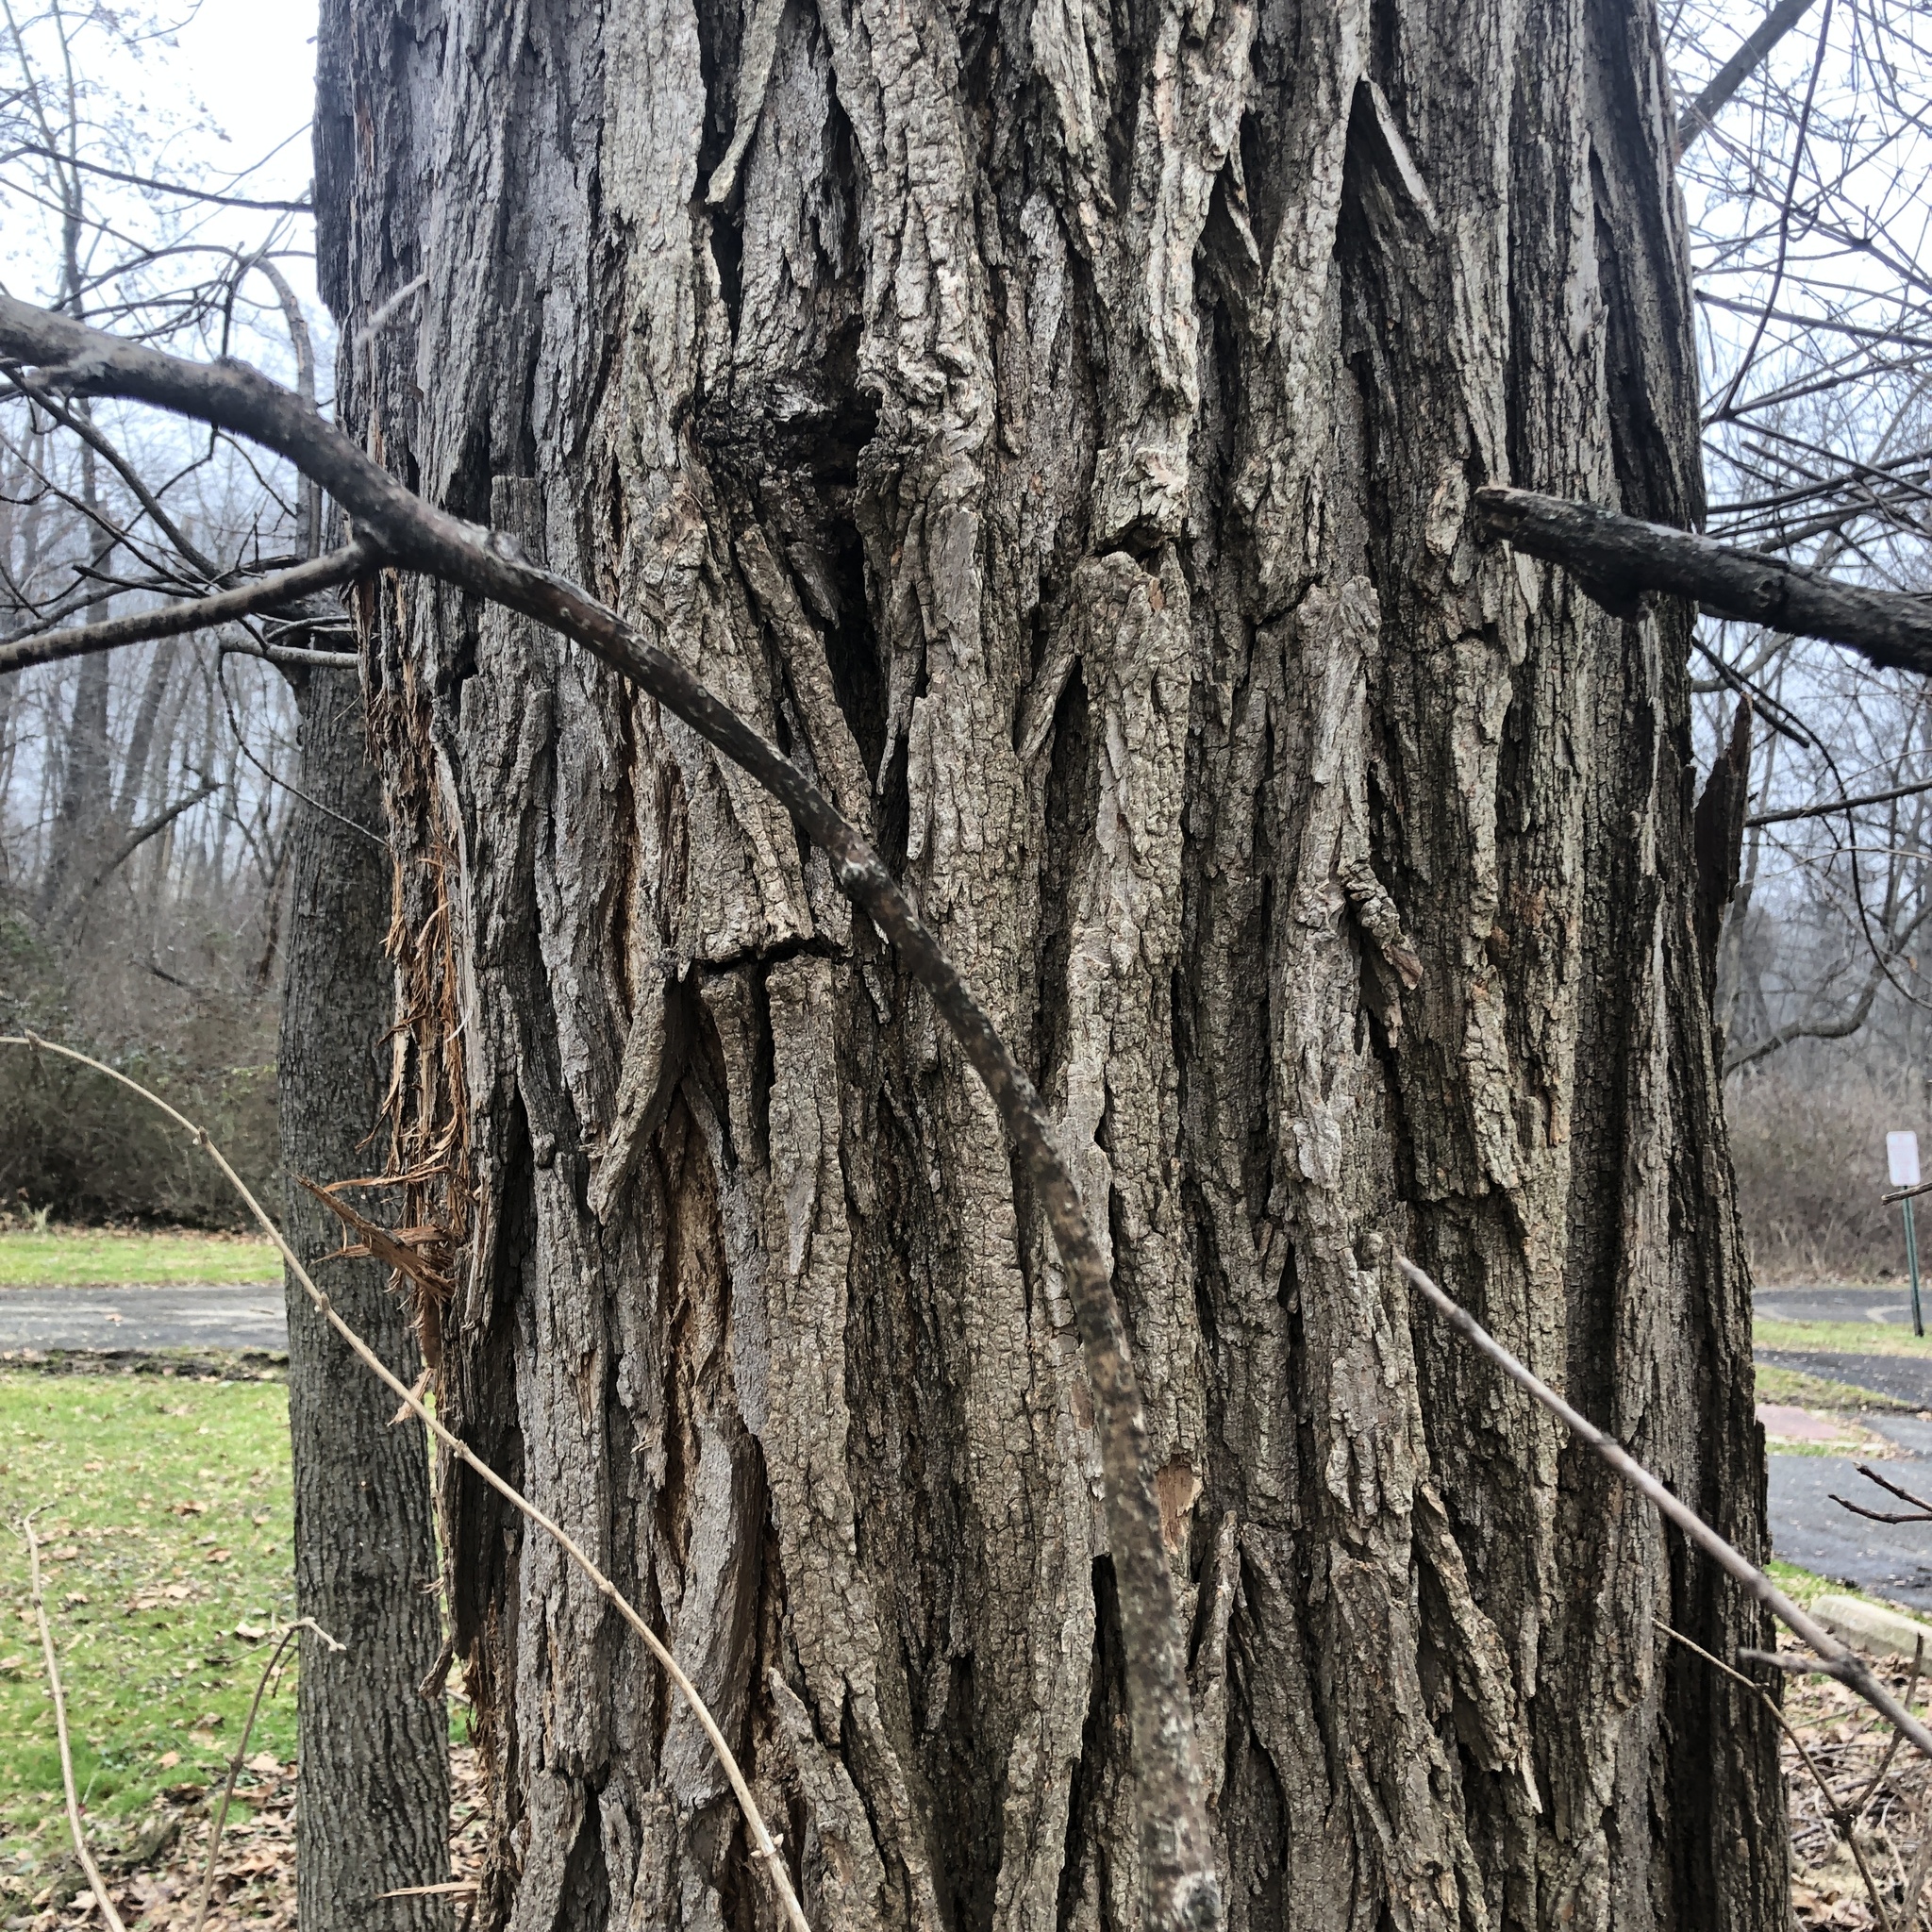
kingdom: Plantae
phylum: Tracheophyta
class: Magnoliopsida
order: Fabales
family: Fabaceae
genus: Robinia
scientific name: Robinia pseudoacacia
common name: Black locust
